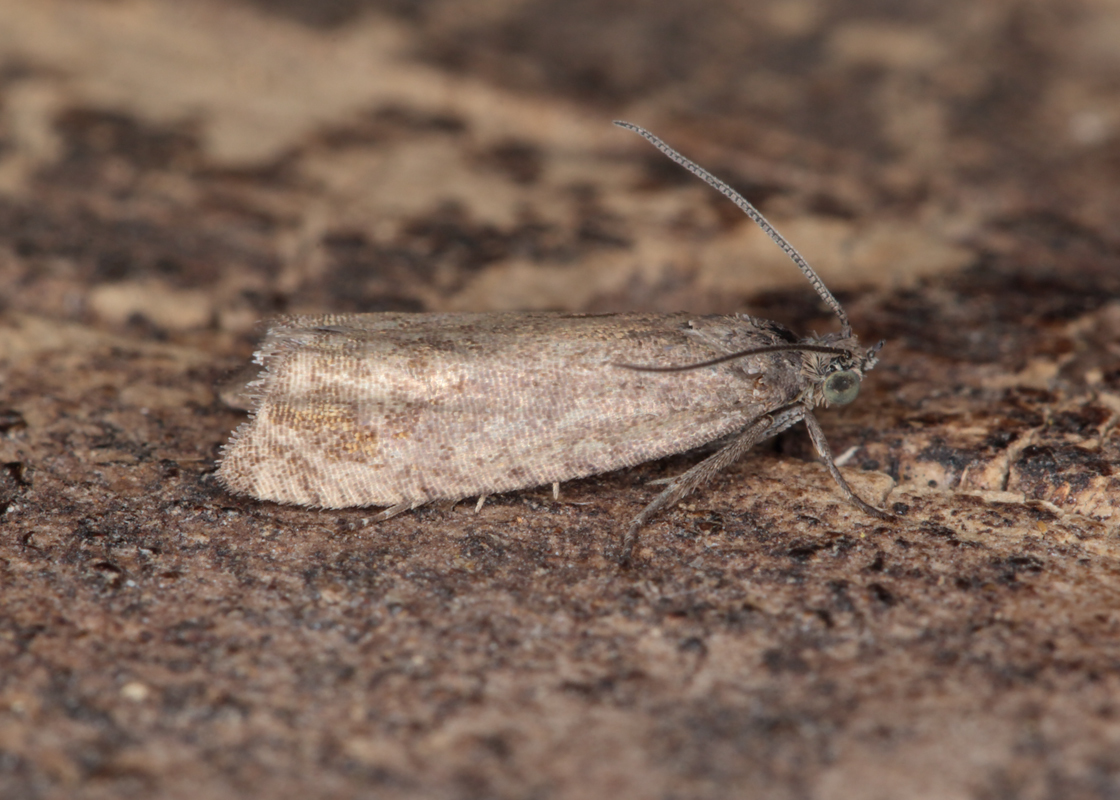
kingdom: Animalia
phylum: Arthropoda
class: Insecta
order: Lepidoptera
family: Tortricidae
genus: Cydia
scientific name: Cydia succedana
